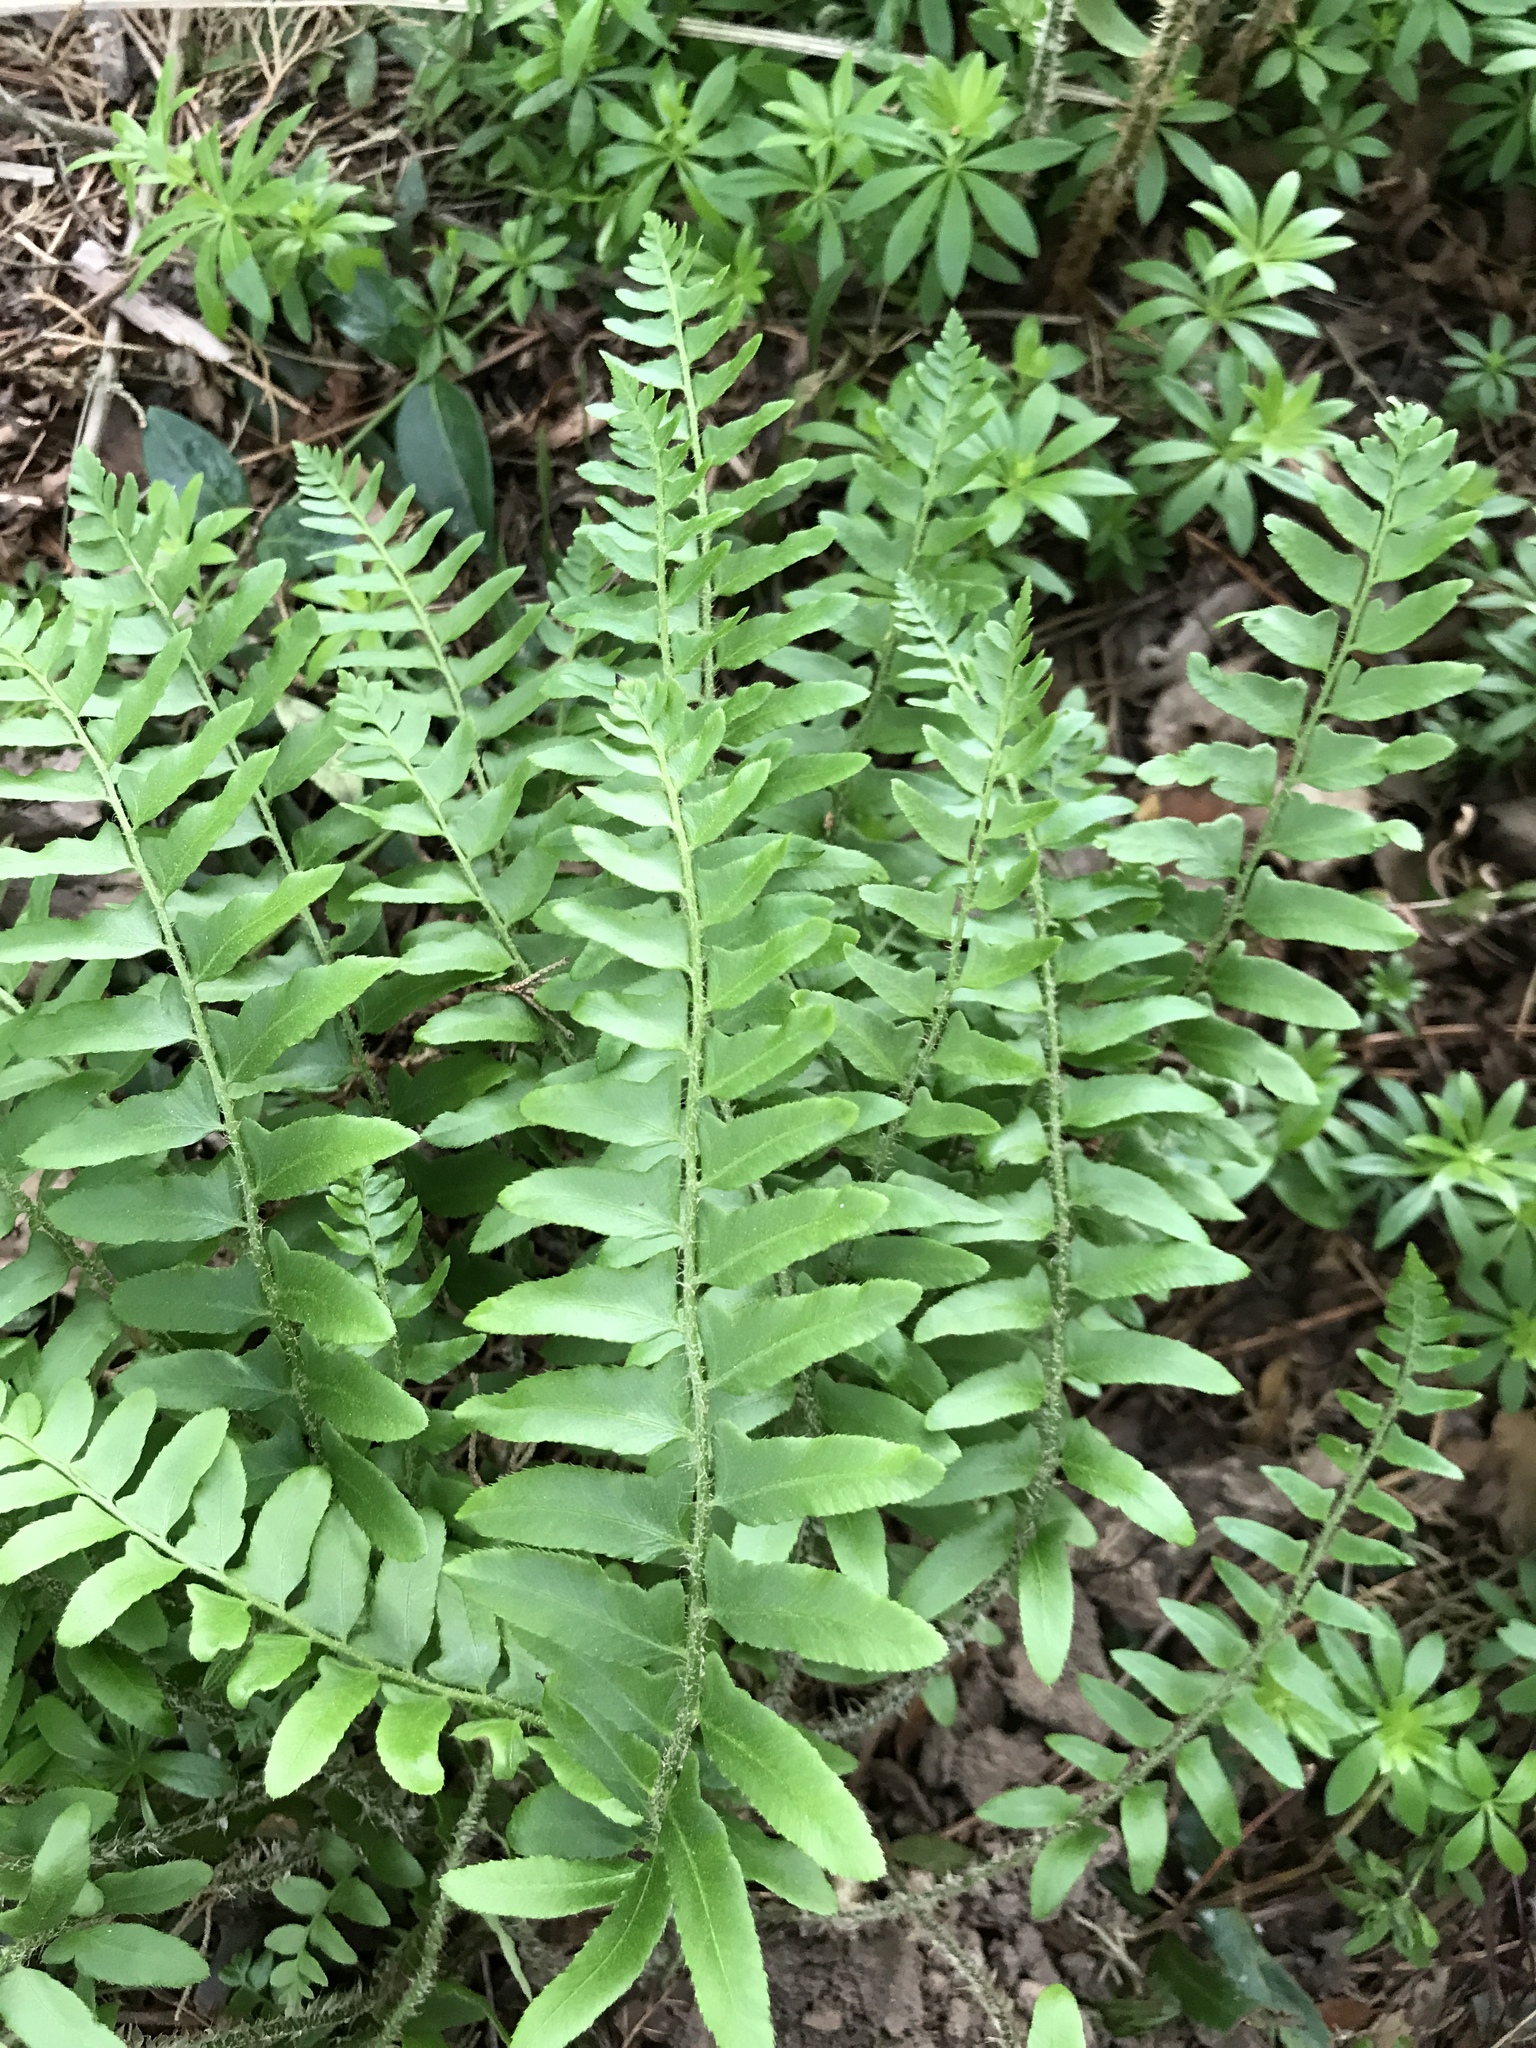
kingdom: Plantae
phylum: Tracheophyta
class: Polypodiopsida
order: Polypodiales
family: Dryopteridaceae
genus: Polystichum
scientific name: Polystichum acrostichoides
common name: Christmas fern
